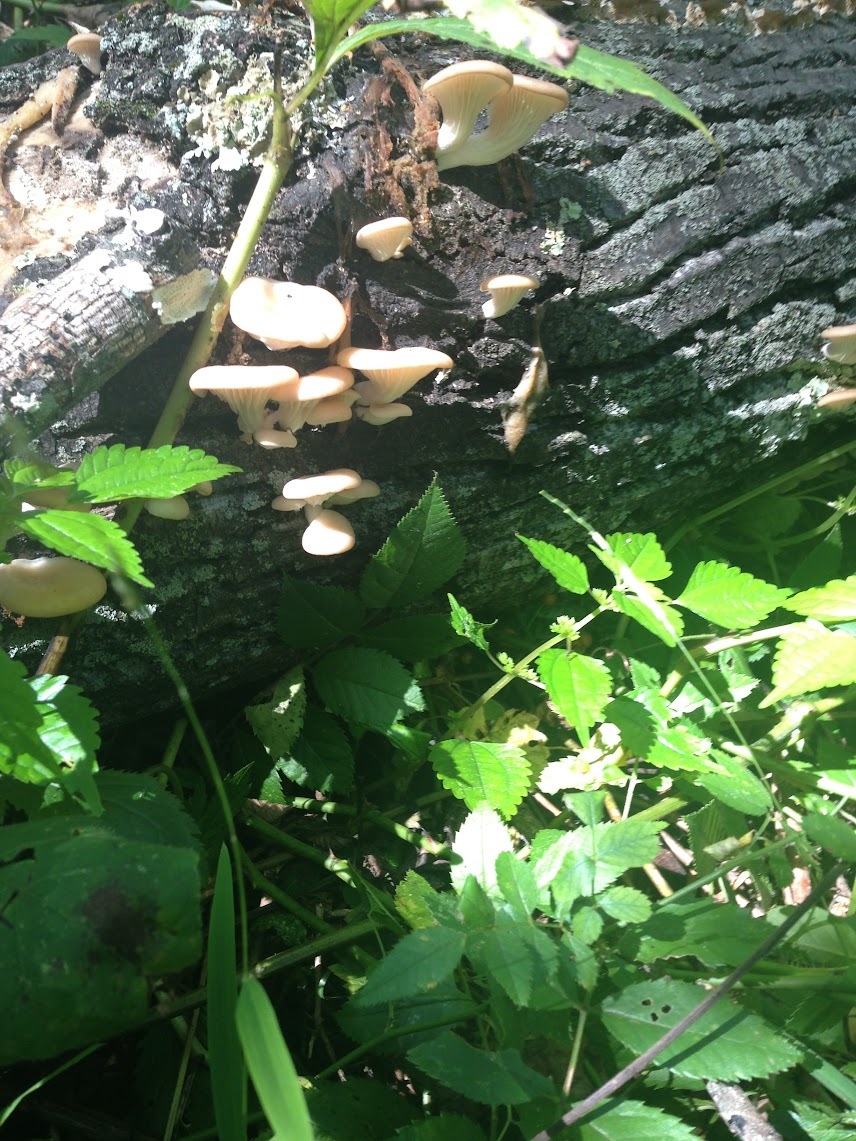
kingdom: Fungi
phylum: Basidiomycota
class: Agaricomycetes
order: Agaricales
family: Pleurotaceae
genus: Pleurotus
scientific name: Pleurotus pulmonarius
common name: Pale oyster
